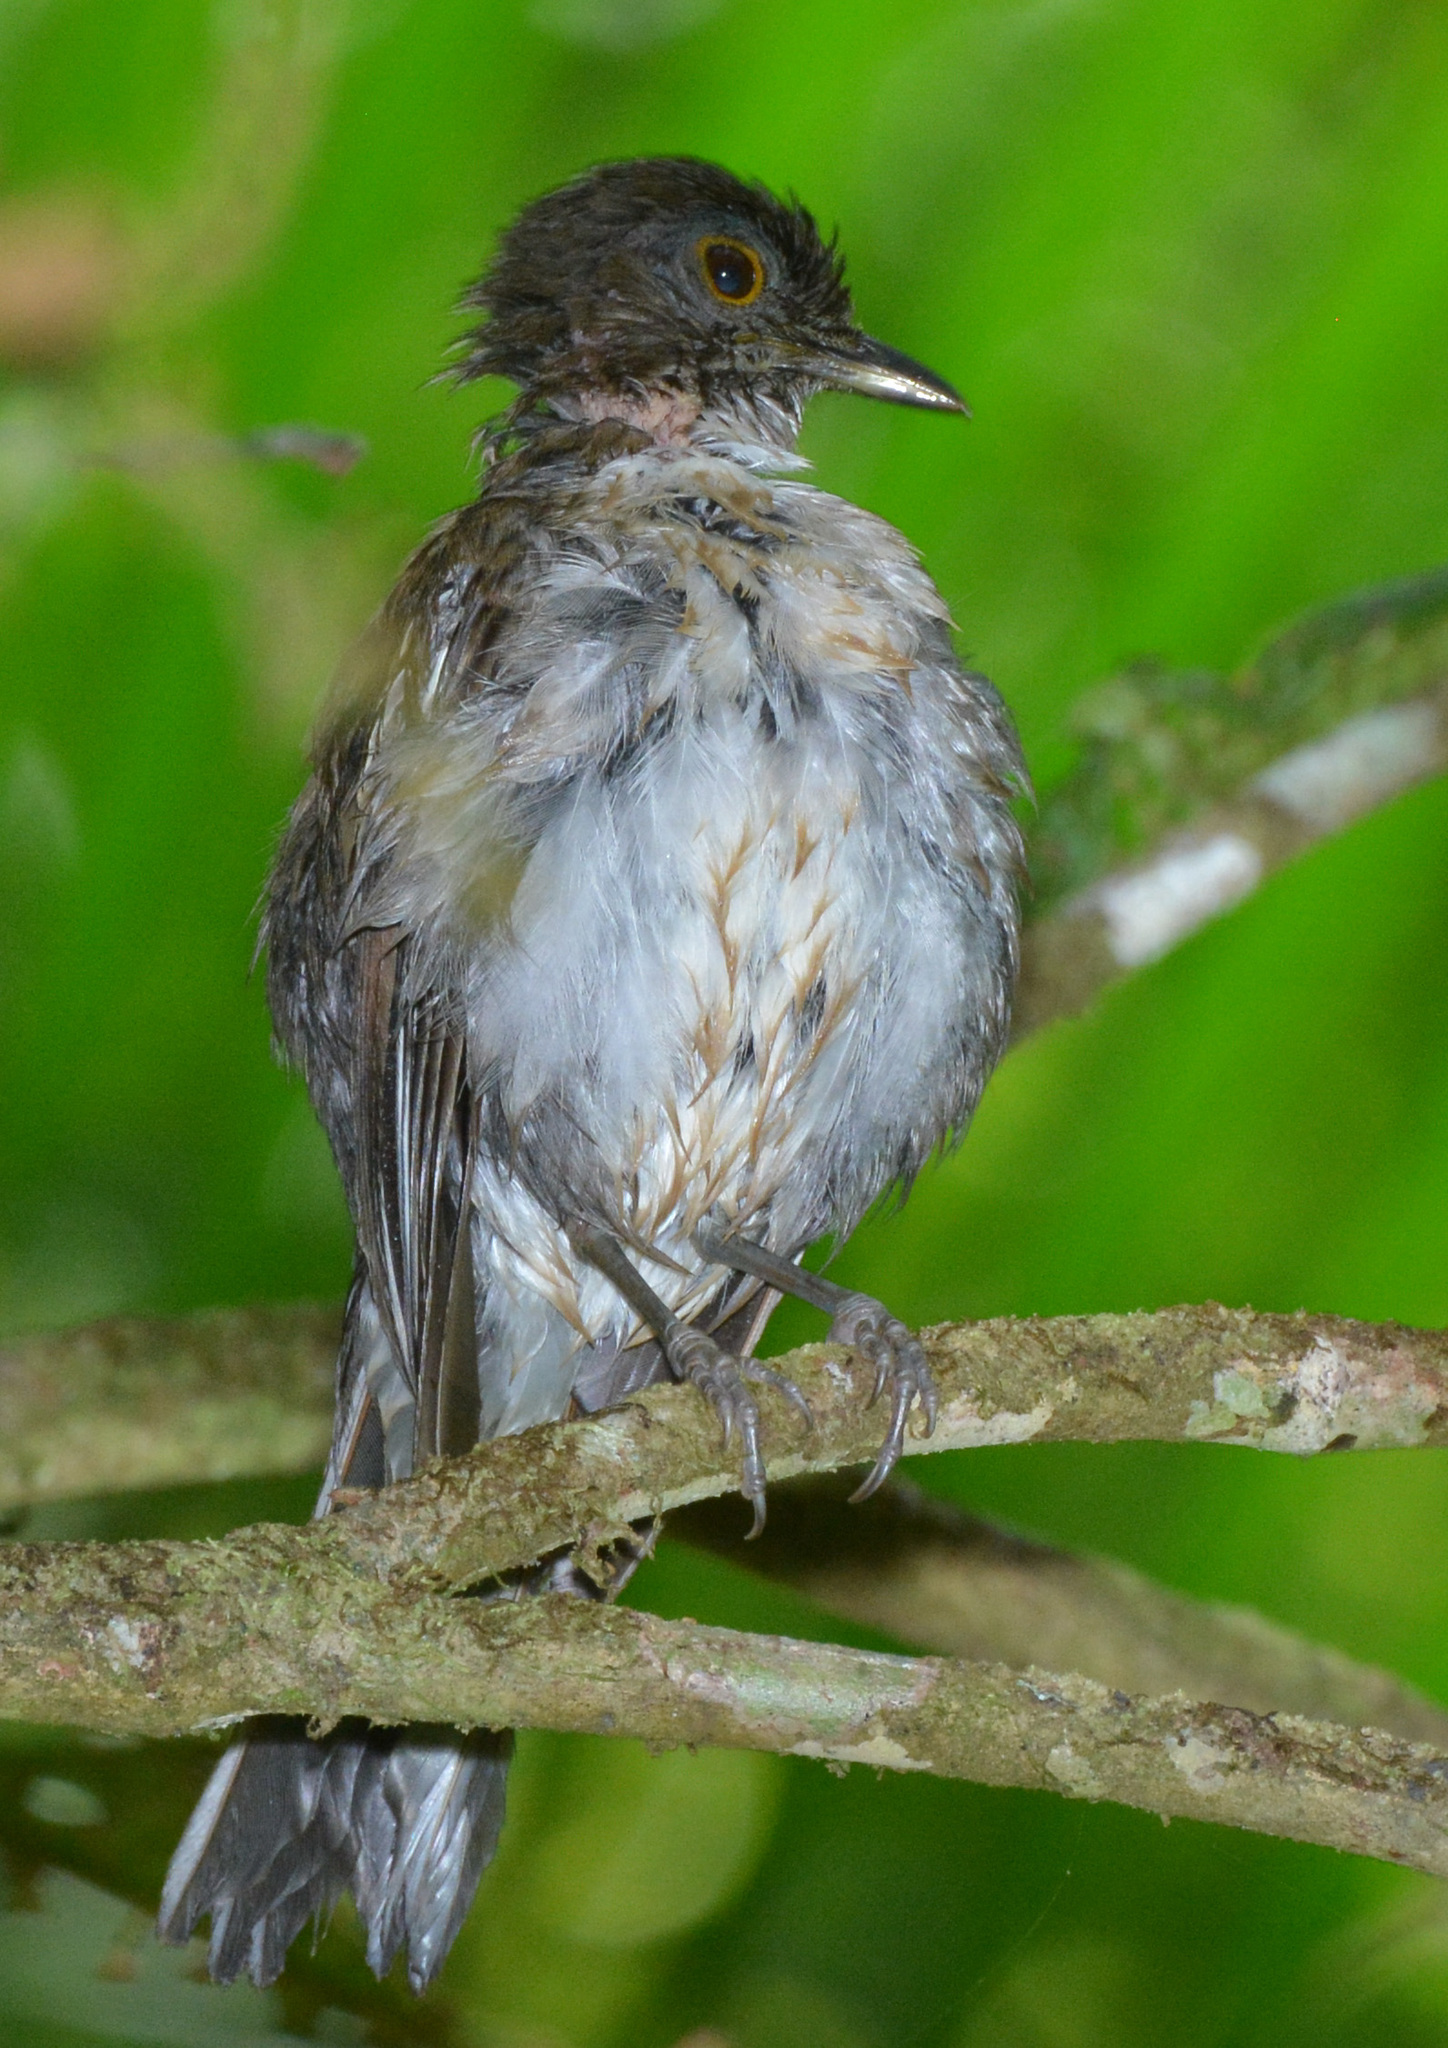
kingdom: Animalia
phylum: Chordata
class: Aves
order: Passeriformes
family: Turdidae
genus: Turdus
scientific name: Turdus albicollis
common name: White-necked thrush
